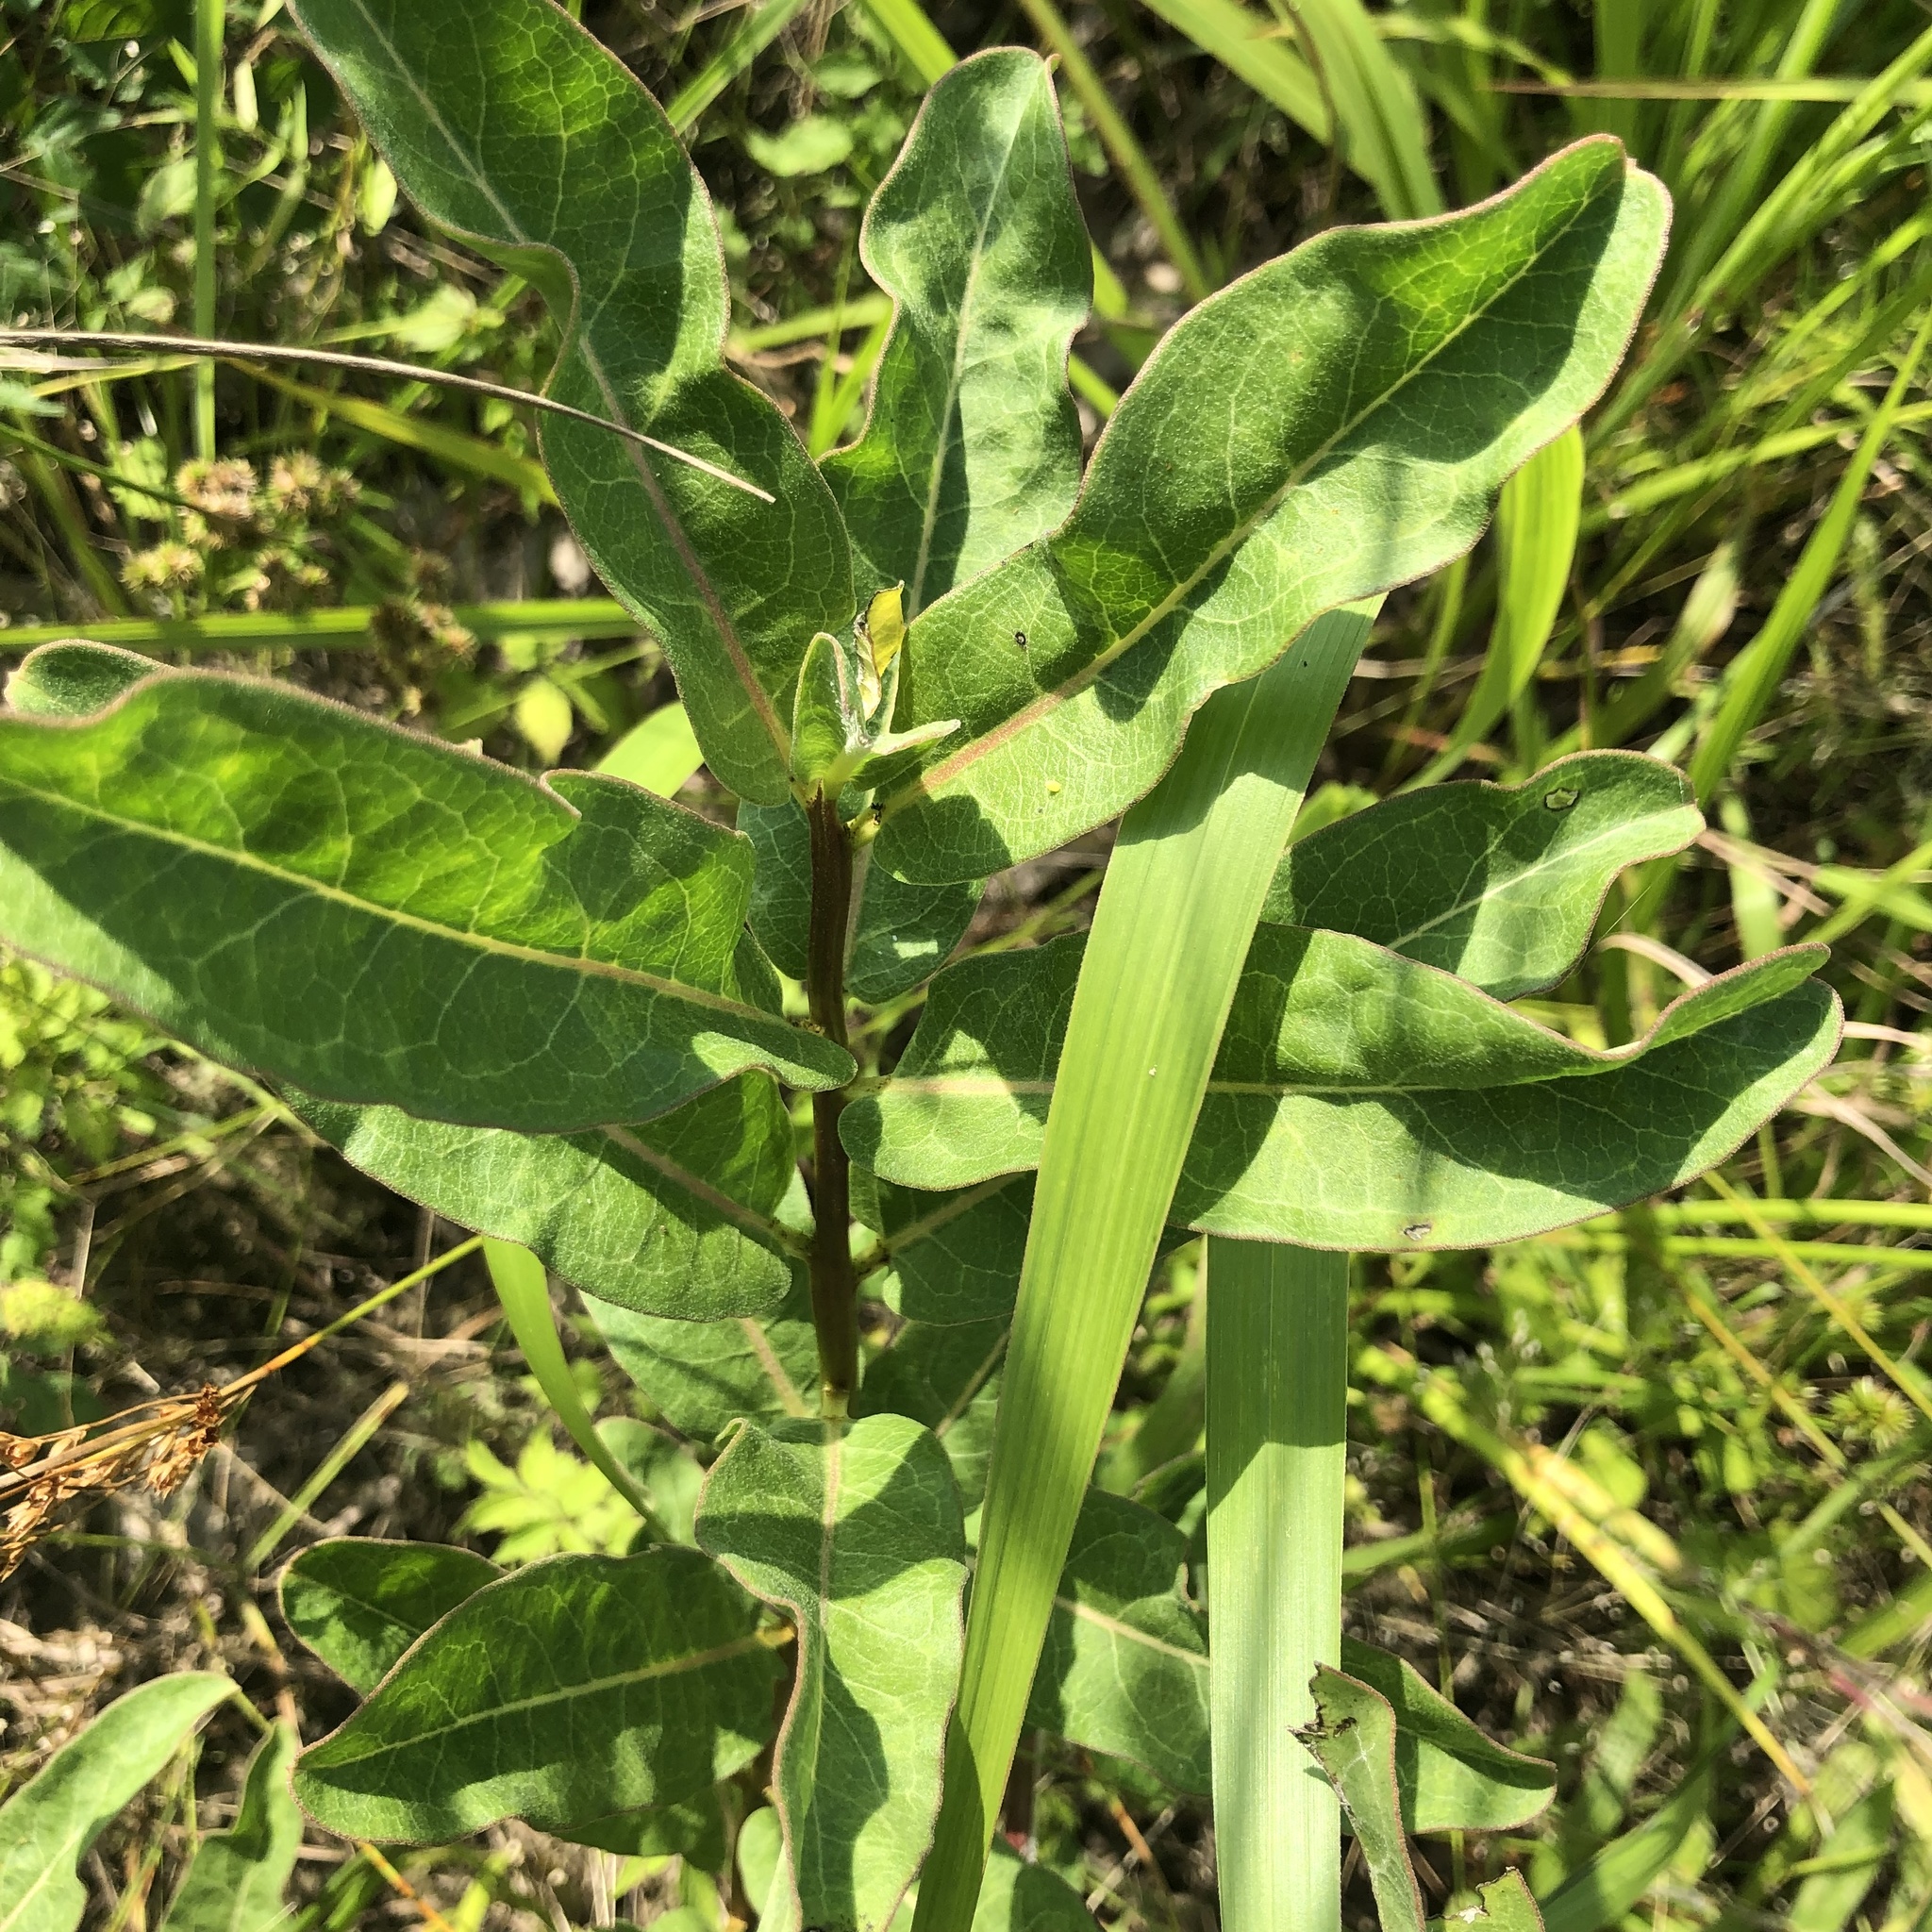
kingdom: Plantae
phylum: Tracheophyta
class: Magnoliopsida
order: Gentianales
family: Apocynaceae
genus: Asclepias
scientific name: Asclepias viridis
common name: Antelope-horns
